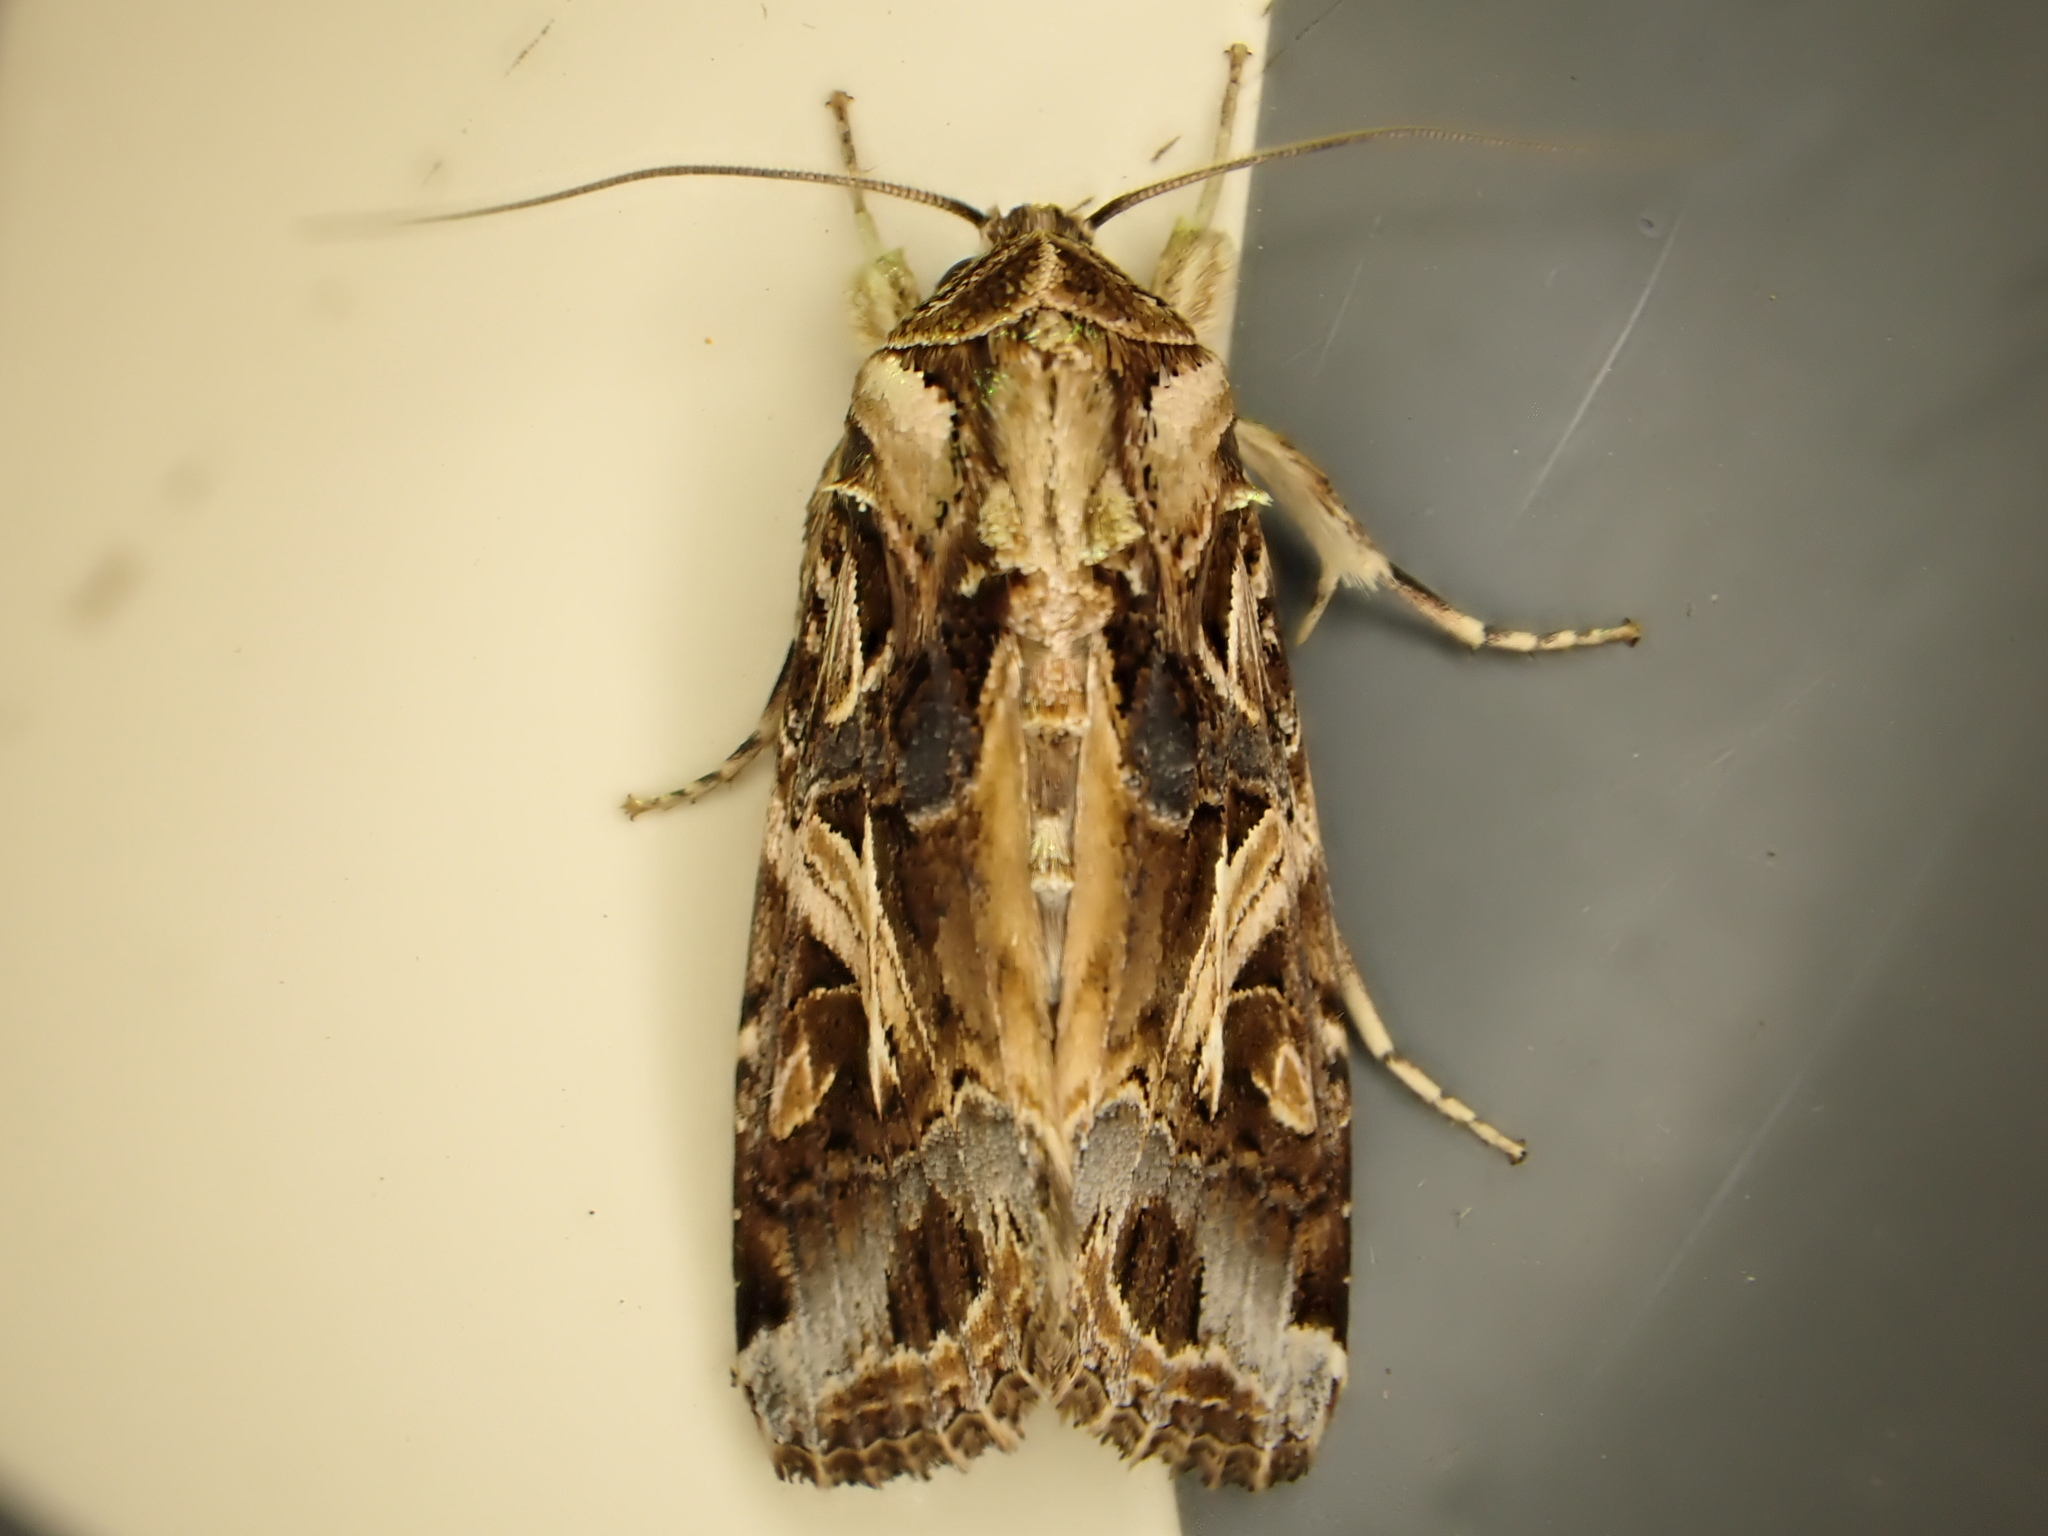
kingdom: Animalia
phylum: Arthropoda
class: Insecta
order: Lepidoptera
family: Noctuidae
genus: Spodoptera
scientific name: Spodoptera litura
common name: Asian cotton leafworm
